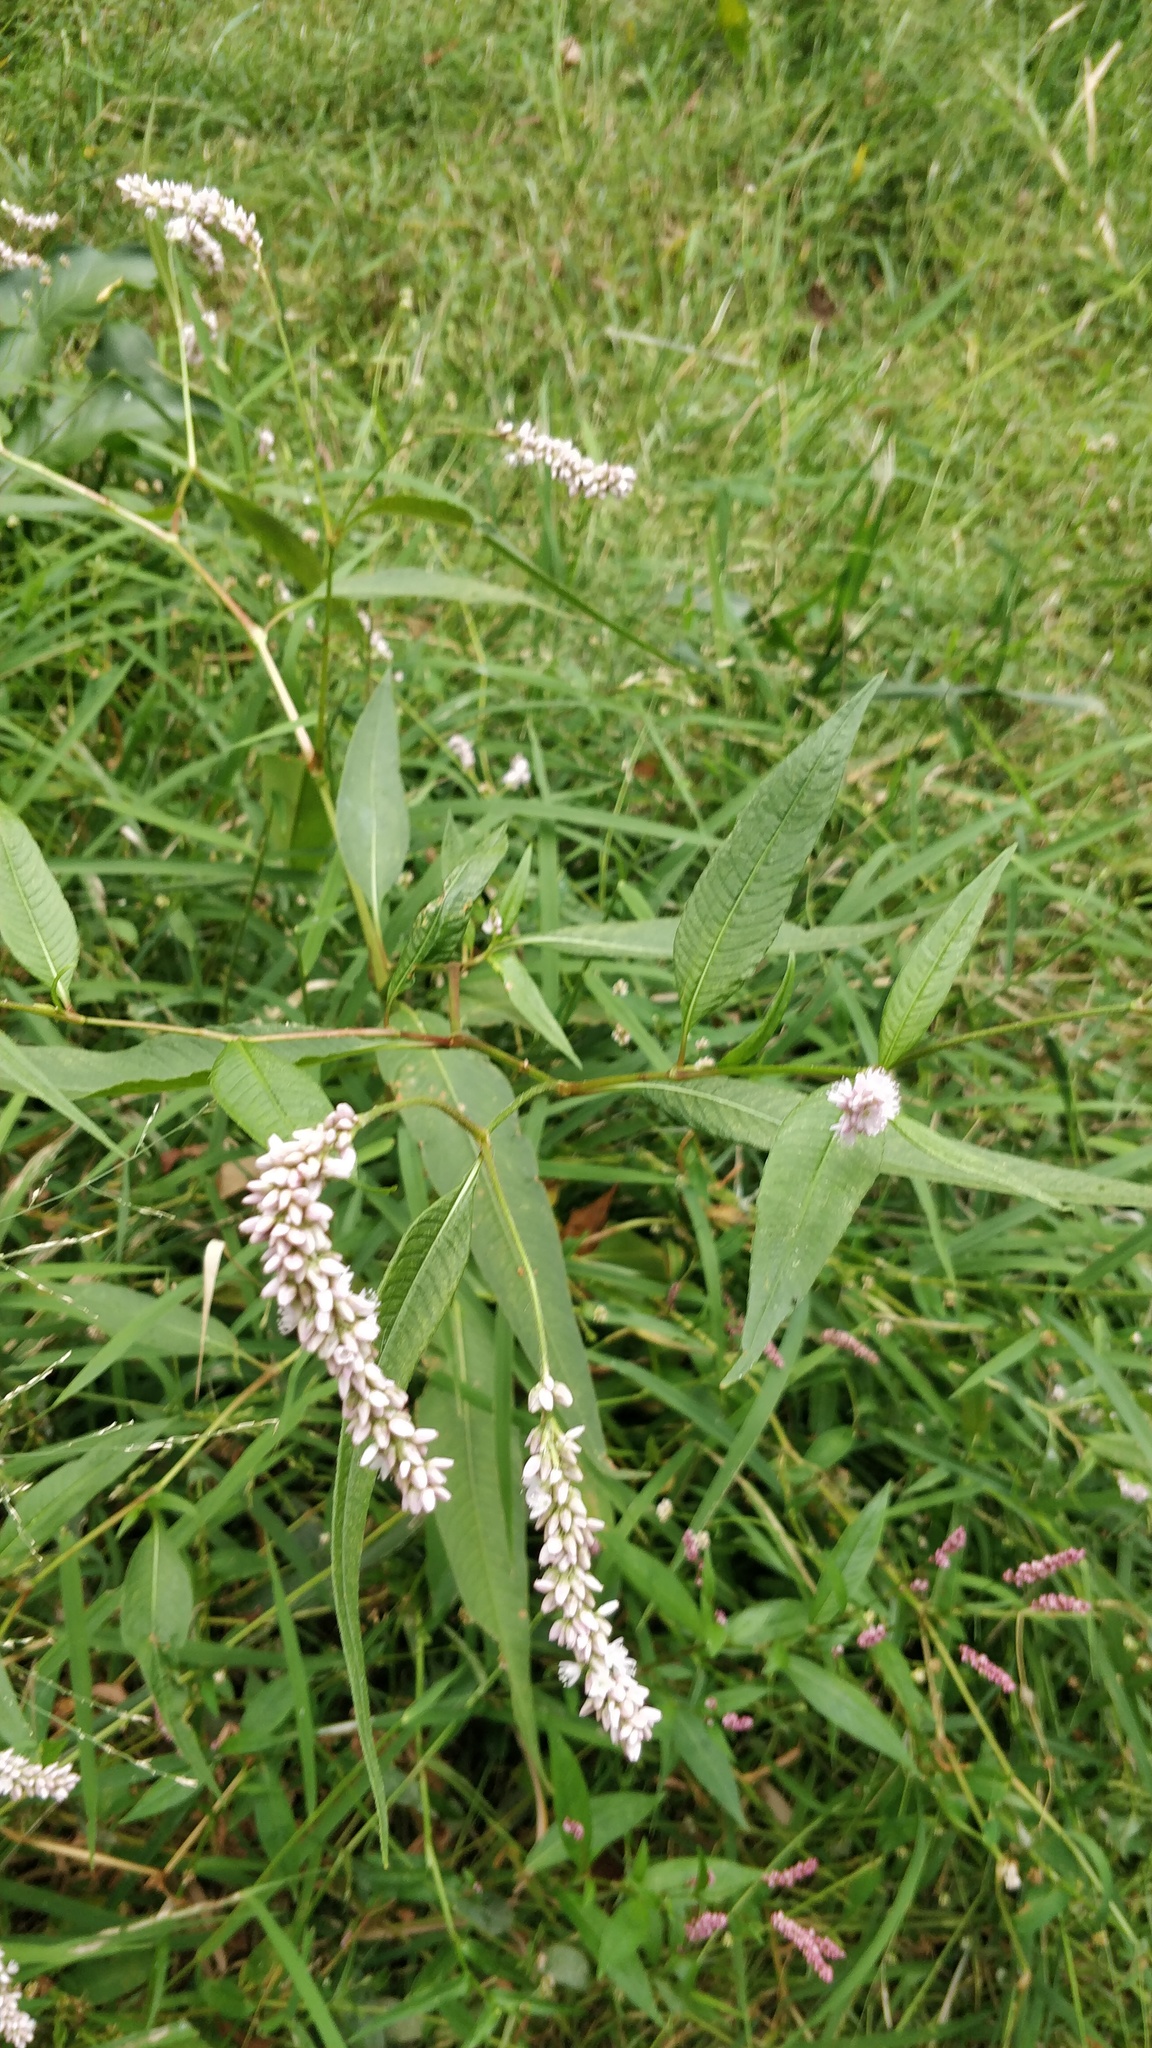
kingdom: Plantae
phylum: Tracheophyta
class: Magnoliopsida
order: Caryophyllales
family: Polygonaceae
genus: Persicaria
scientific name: Persicaria pensylvanica
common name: Pinkweed
